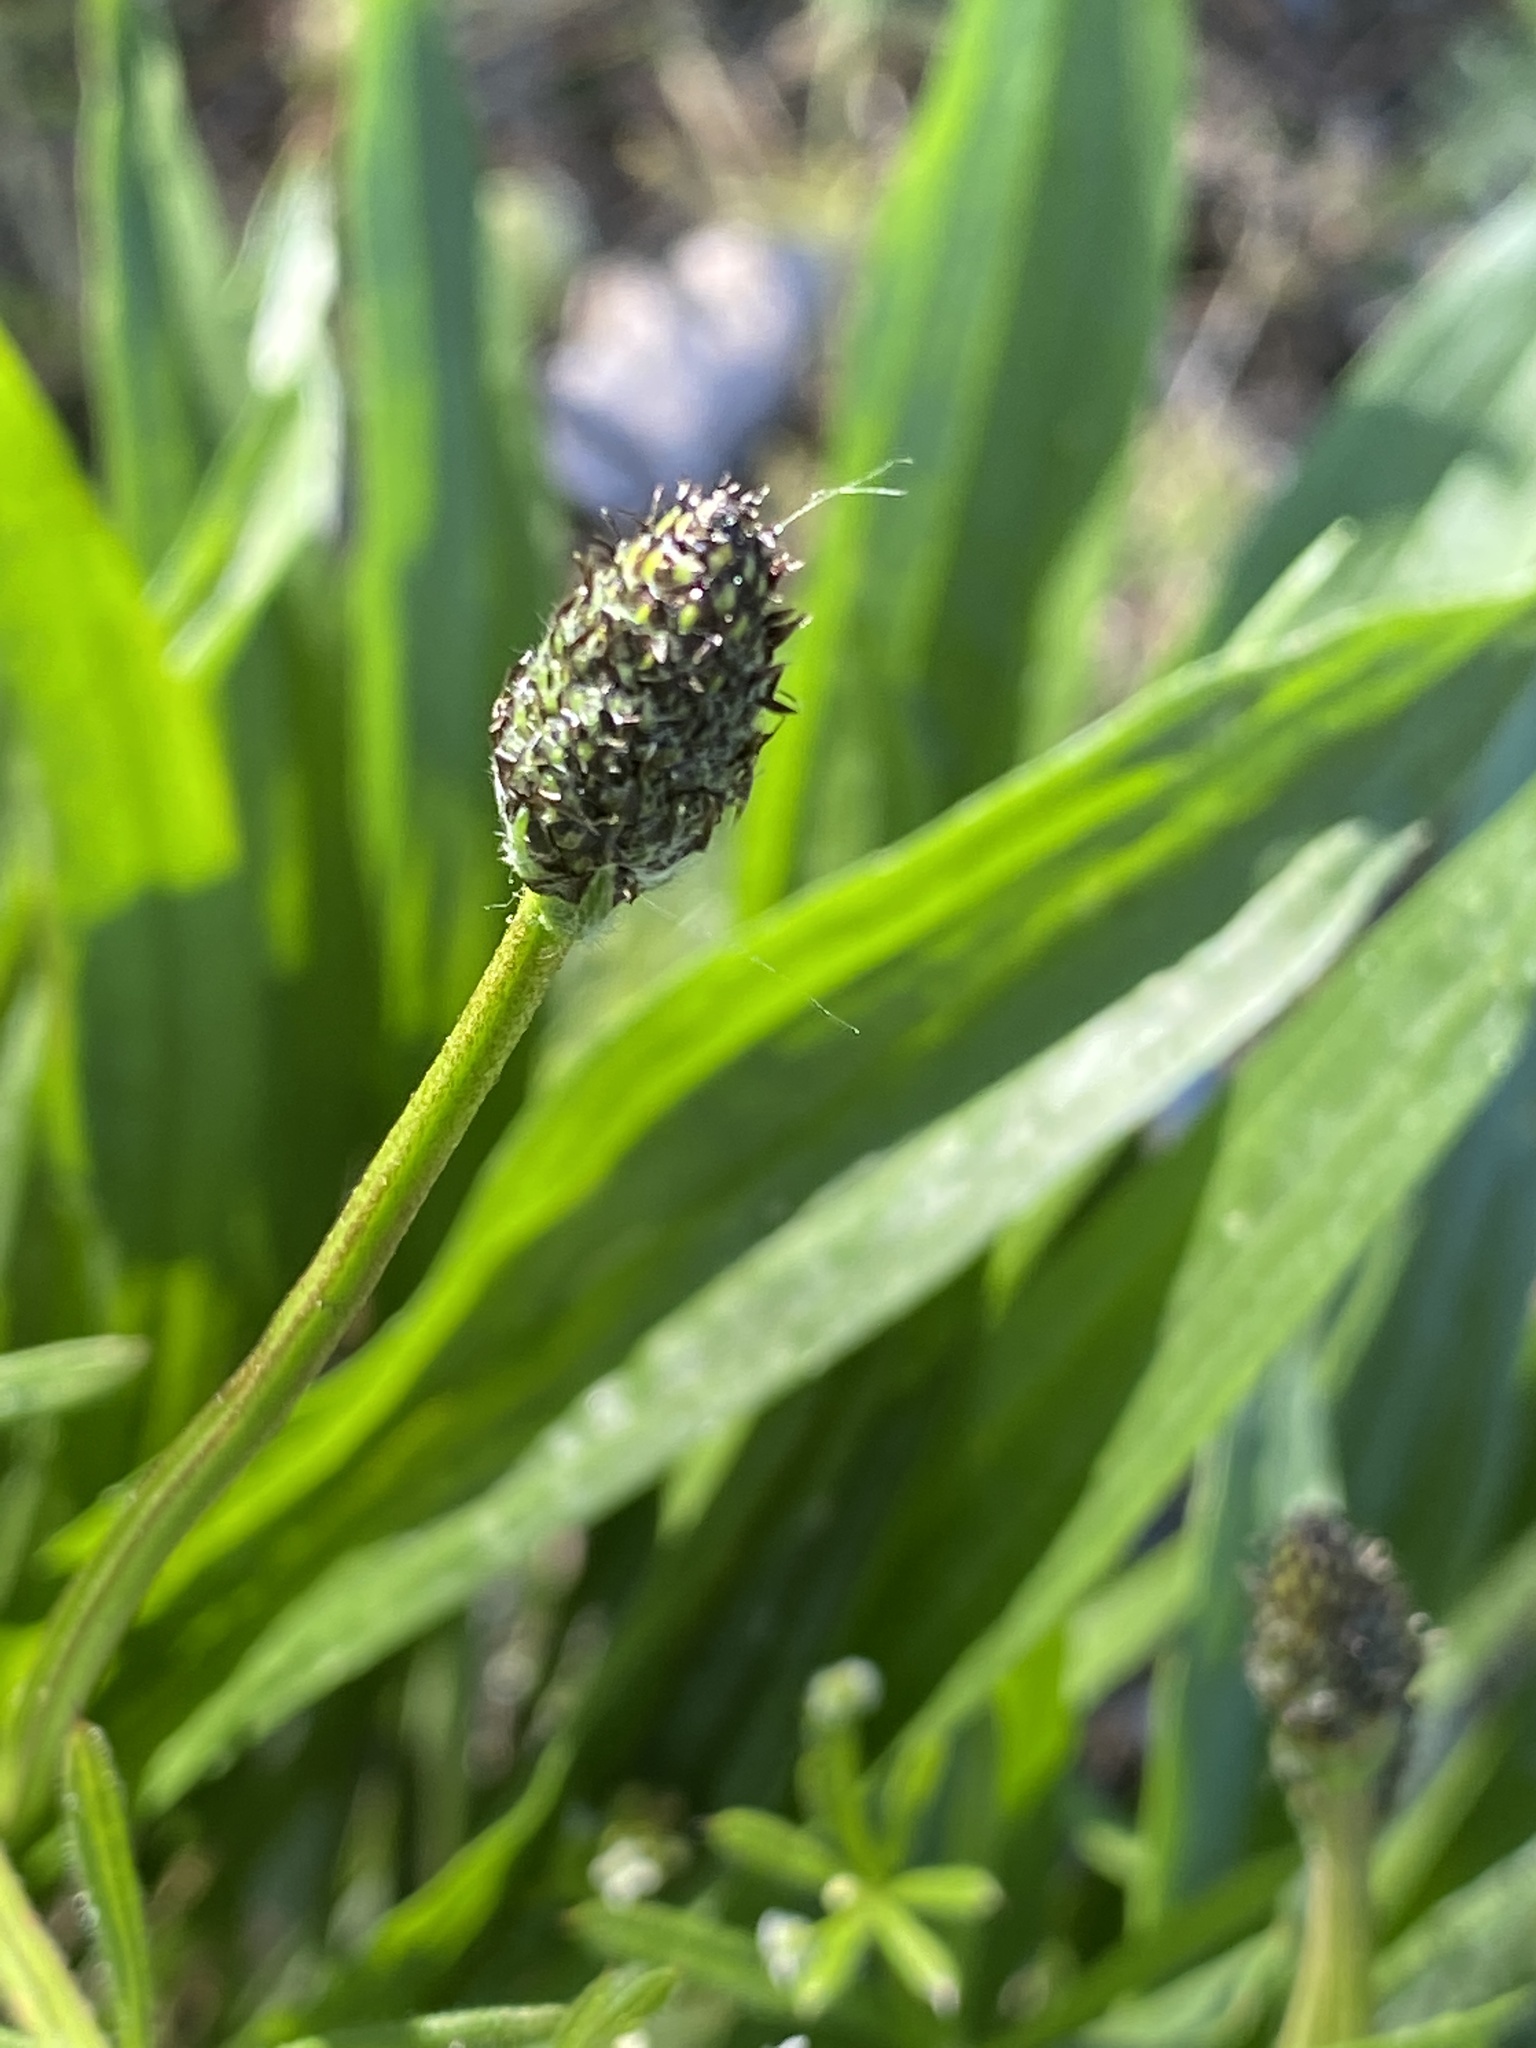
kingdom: Plantae
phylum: Tracheophyta
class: Magnoliopsida
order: Lamiales
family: Plantaginaceae
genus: Plantago
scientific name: Plantago lanceolata
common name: Ribwort plantain
